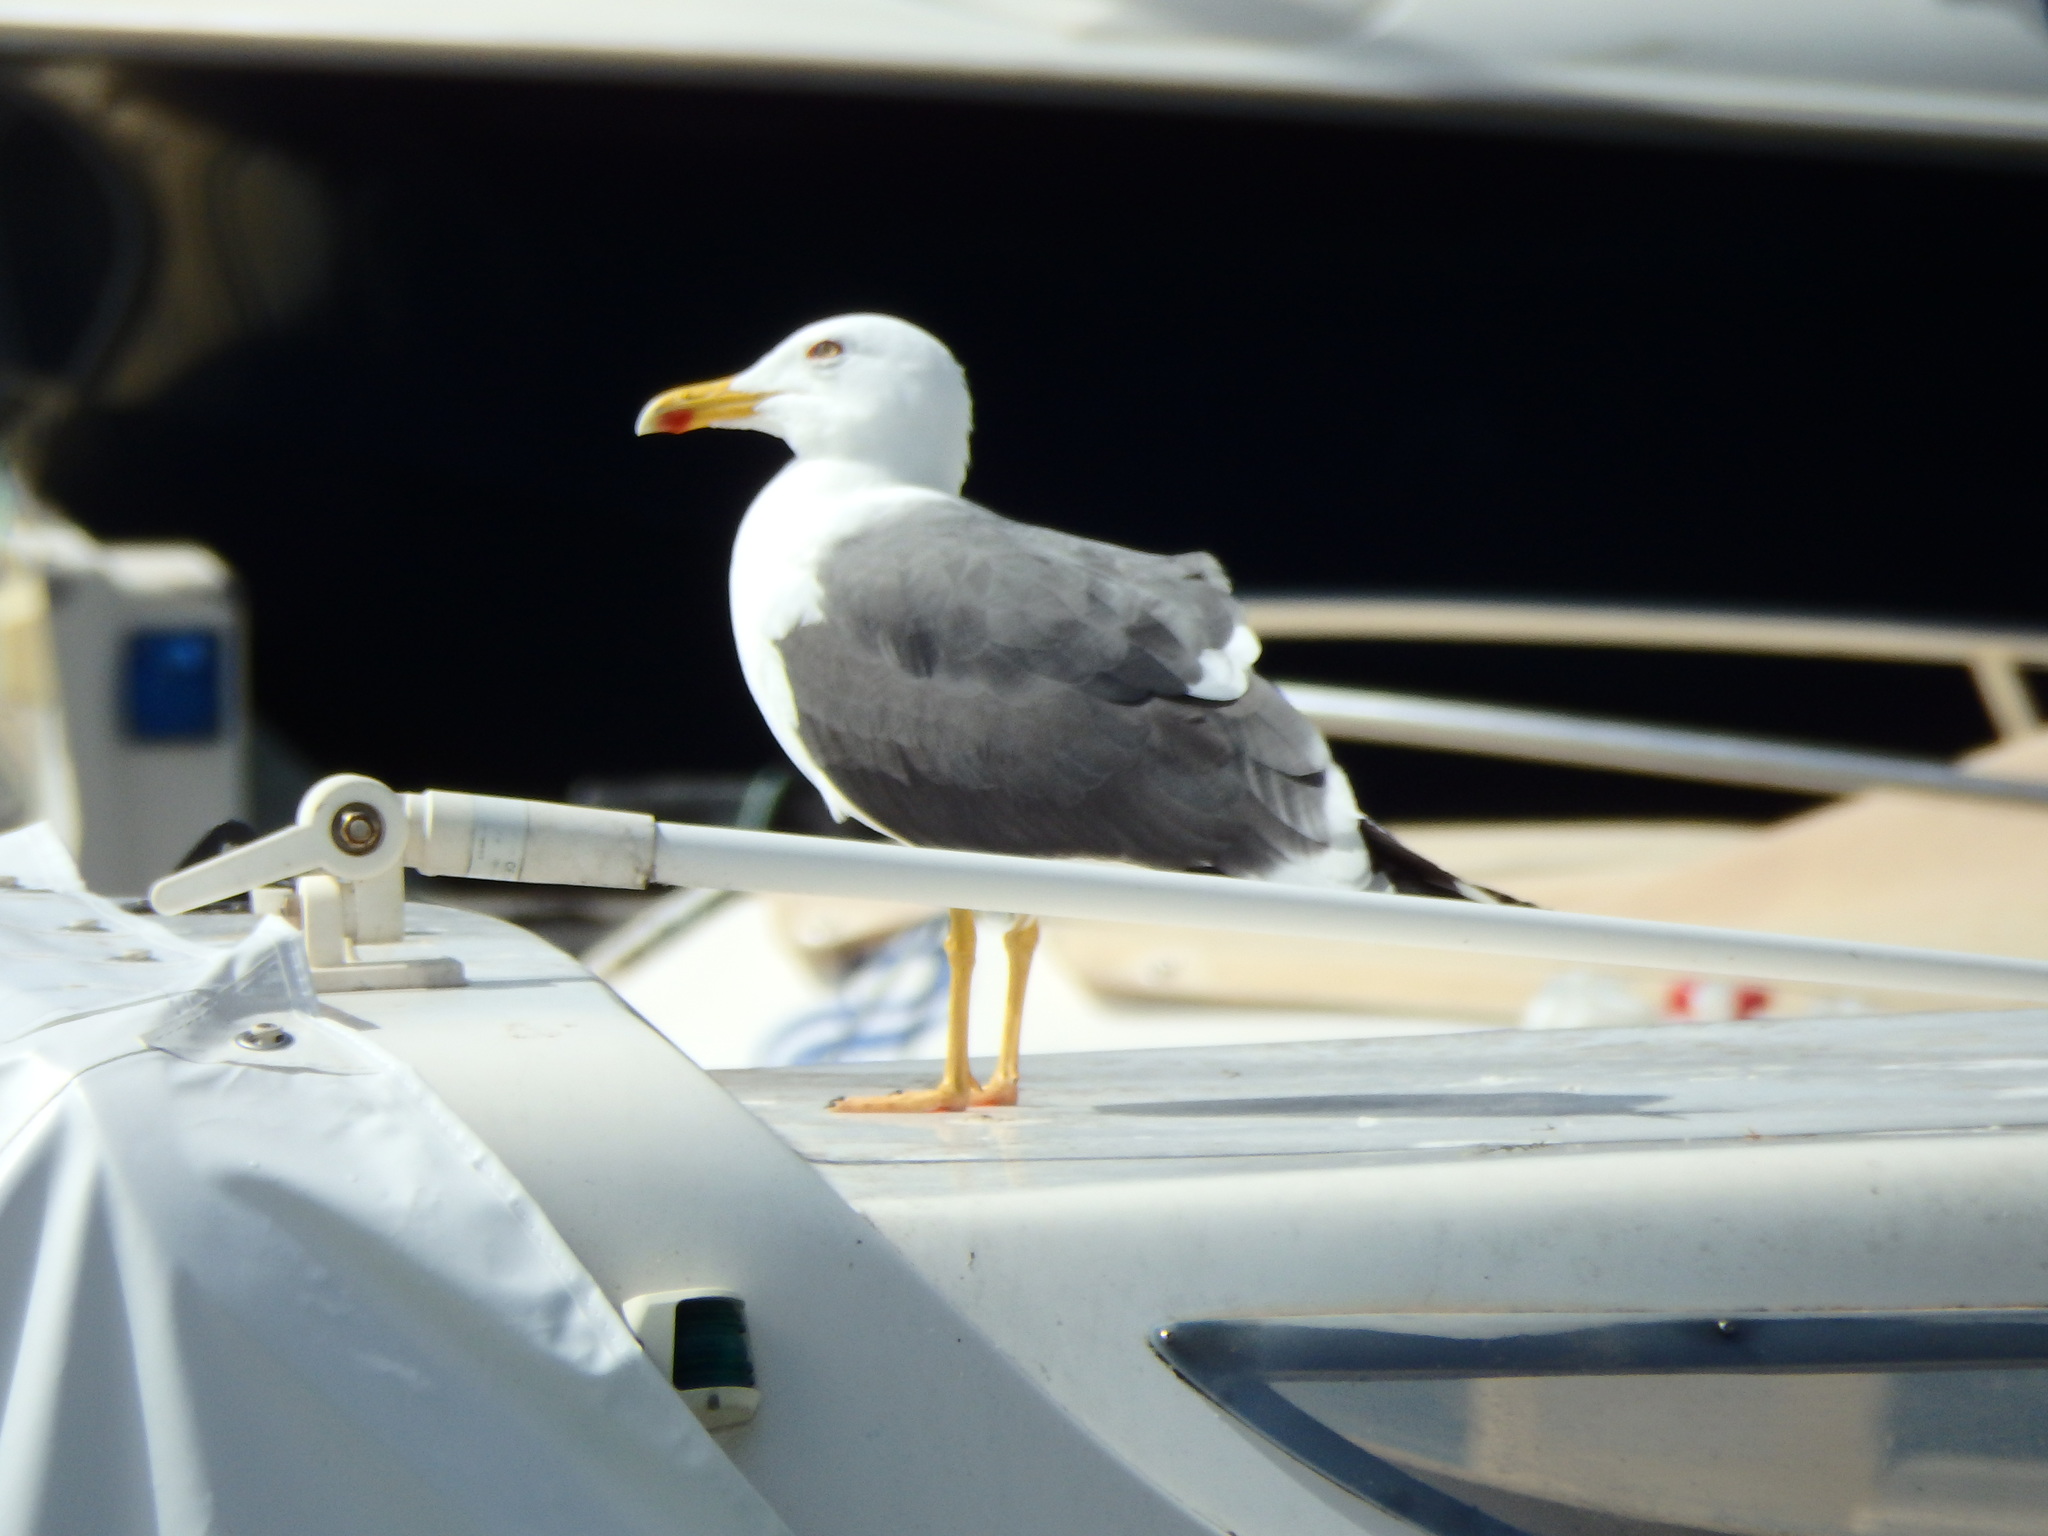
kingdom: Animalia
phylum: Chordata
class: Aves
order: Charadriiformes
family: Laridae
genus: Larus
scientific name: Larus michahellis
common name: Yellow-legged gull
